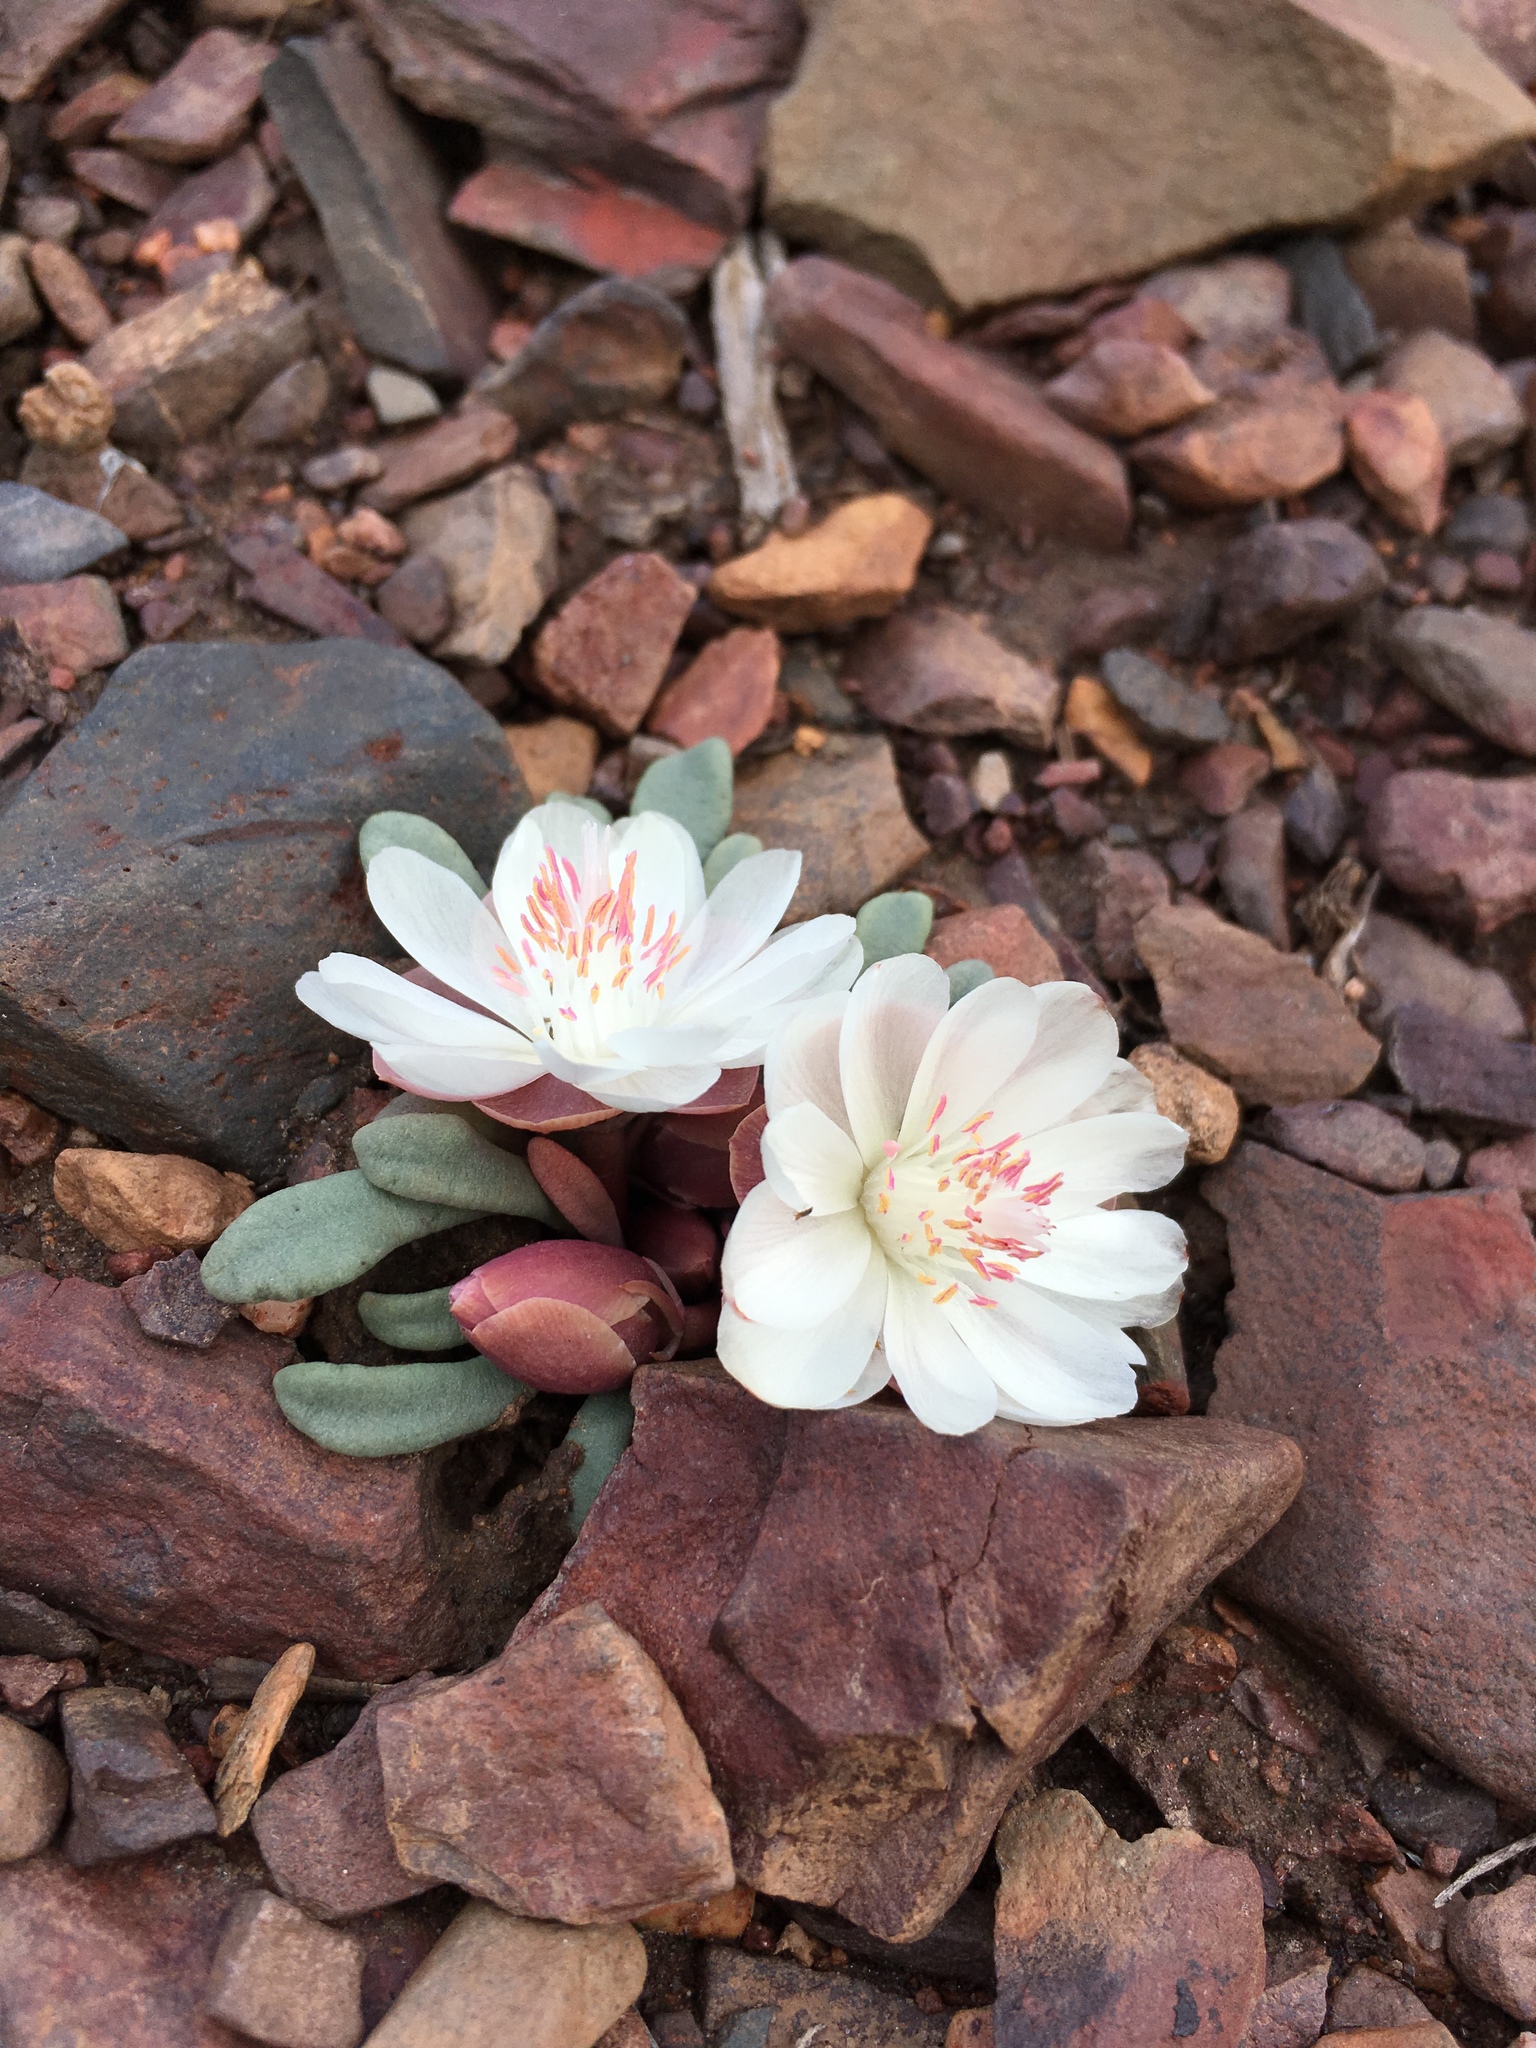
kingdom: Plantae
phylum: Tracheophyta
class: Magnoliopsida
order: Caryophyllales
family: Montiaceae
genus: Lewisia
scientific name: Lewisia rediviva
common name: Bitter-root
